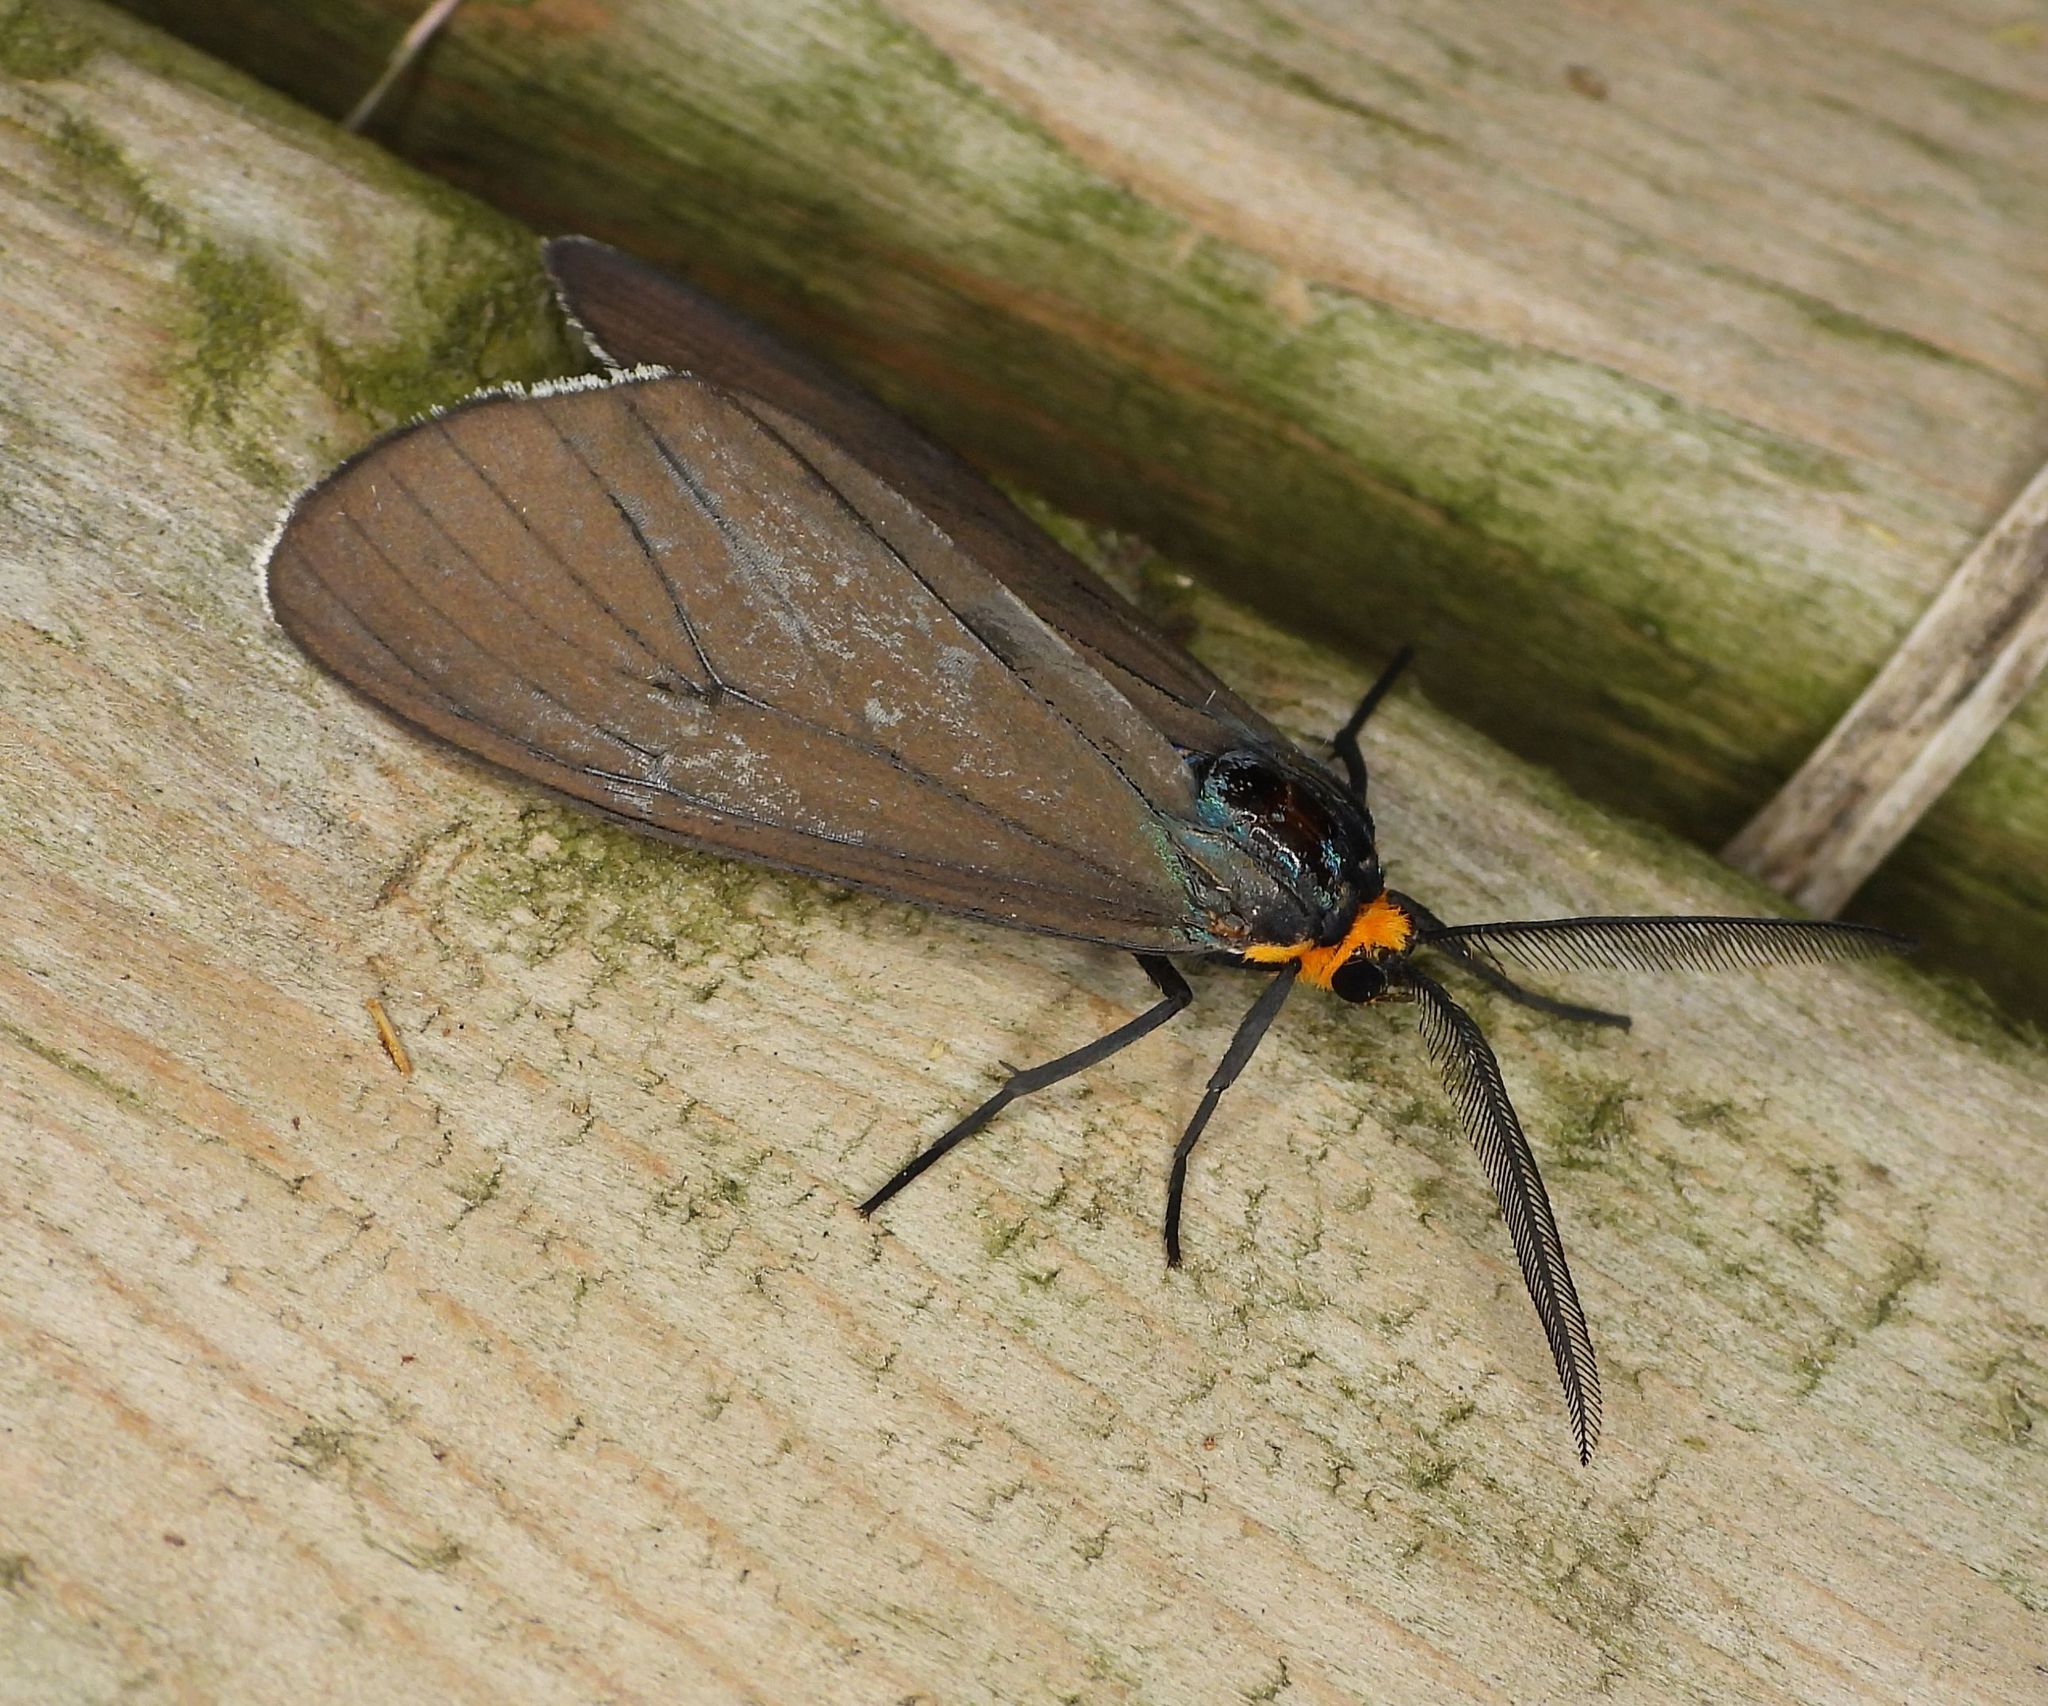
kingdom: Animalia
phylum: Arthropoda
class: Insecta
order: Lepidoptera
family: Erebidae
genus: Ctenucha
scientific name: Ctenucha virginica
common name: Virginia ctenucha moth
